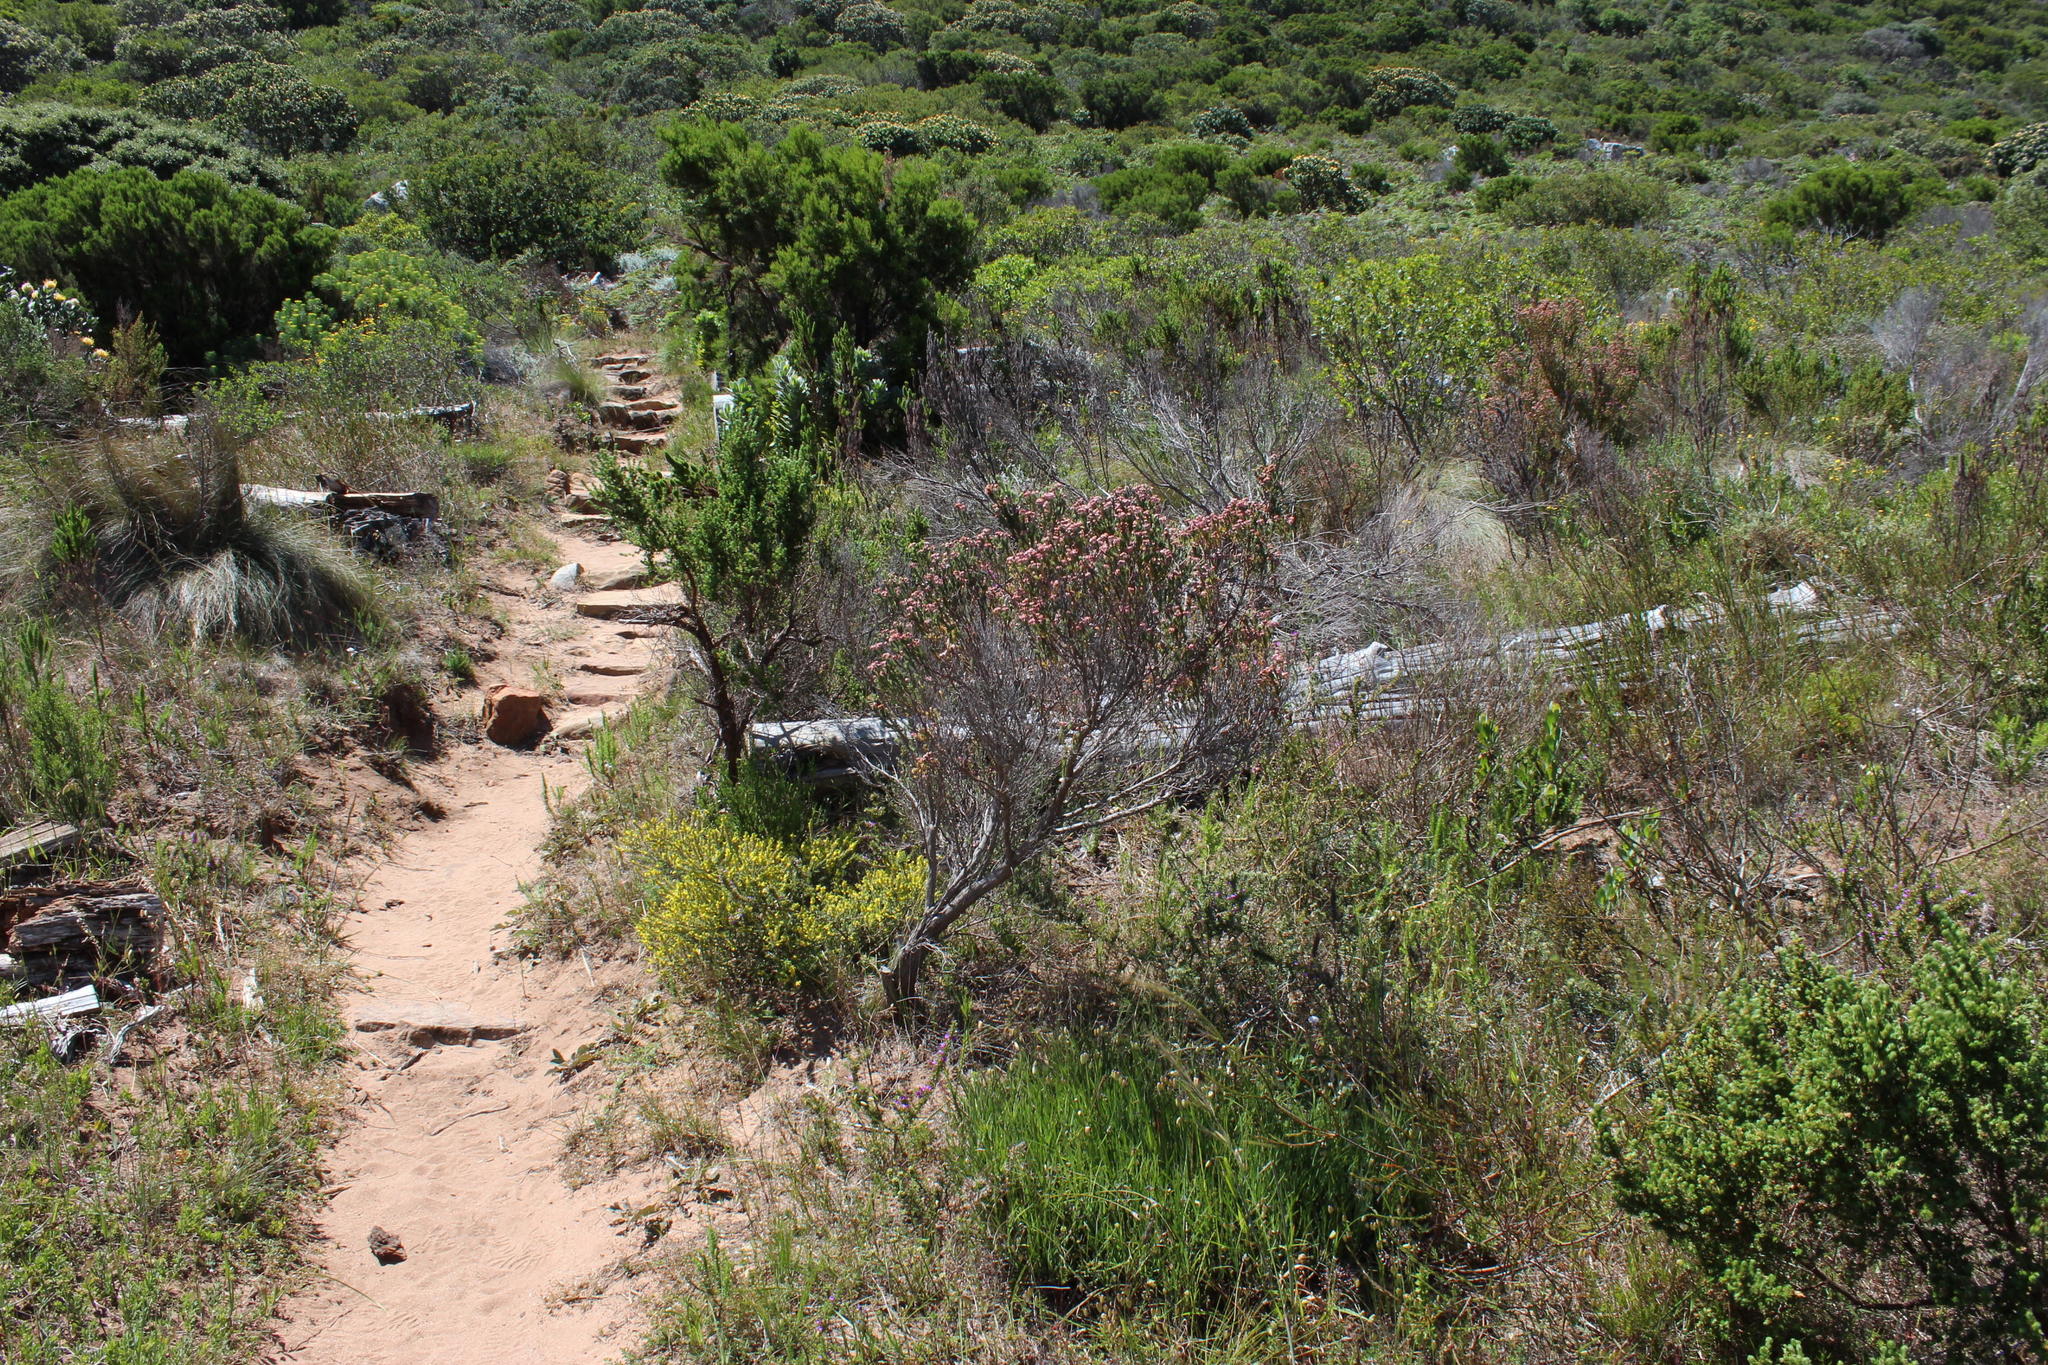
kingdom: Plantae
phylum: Tracheophyta
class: Magnoliopsida
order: Ericales
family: Ericaceae
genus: Erica
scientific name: Erica baccans
